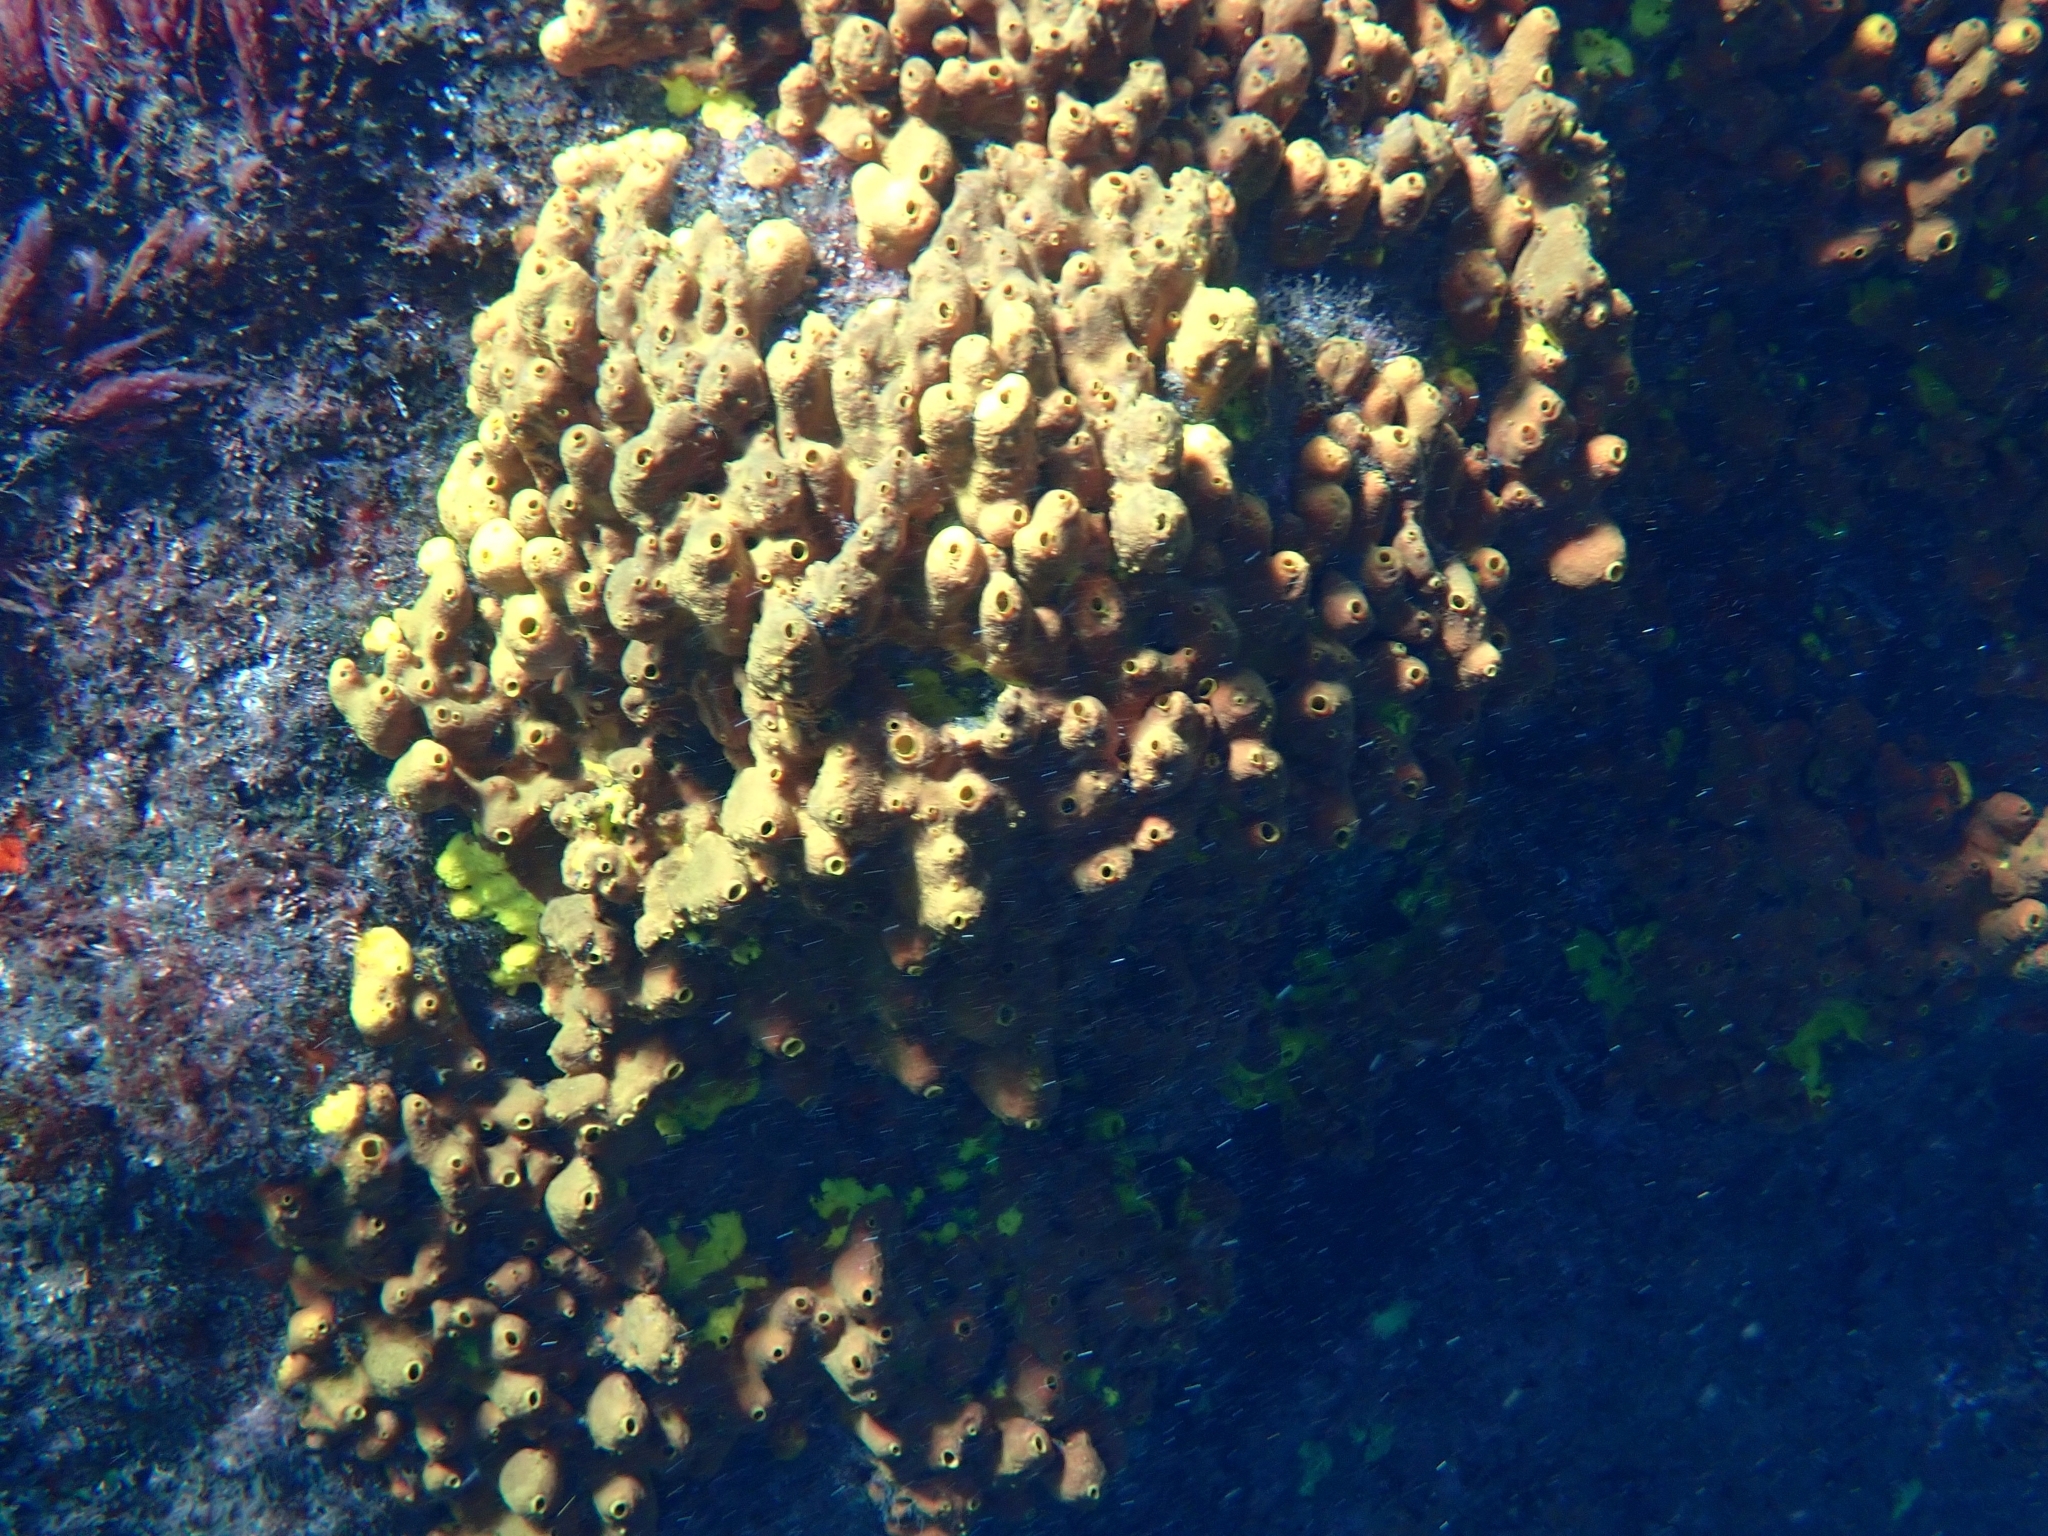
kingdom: Animalia
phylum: Porifera
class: Demospongiae
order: Verongiida
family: Aplysinidae
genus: Aplysina
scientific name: Aplysina aerophoba
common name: Aureate sponge
